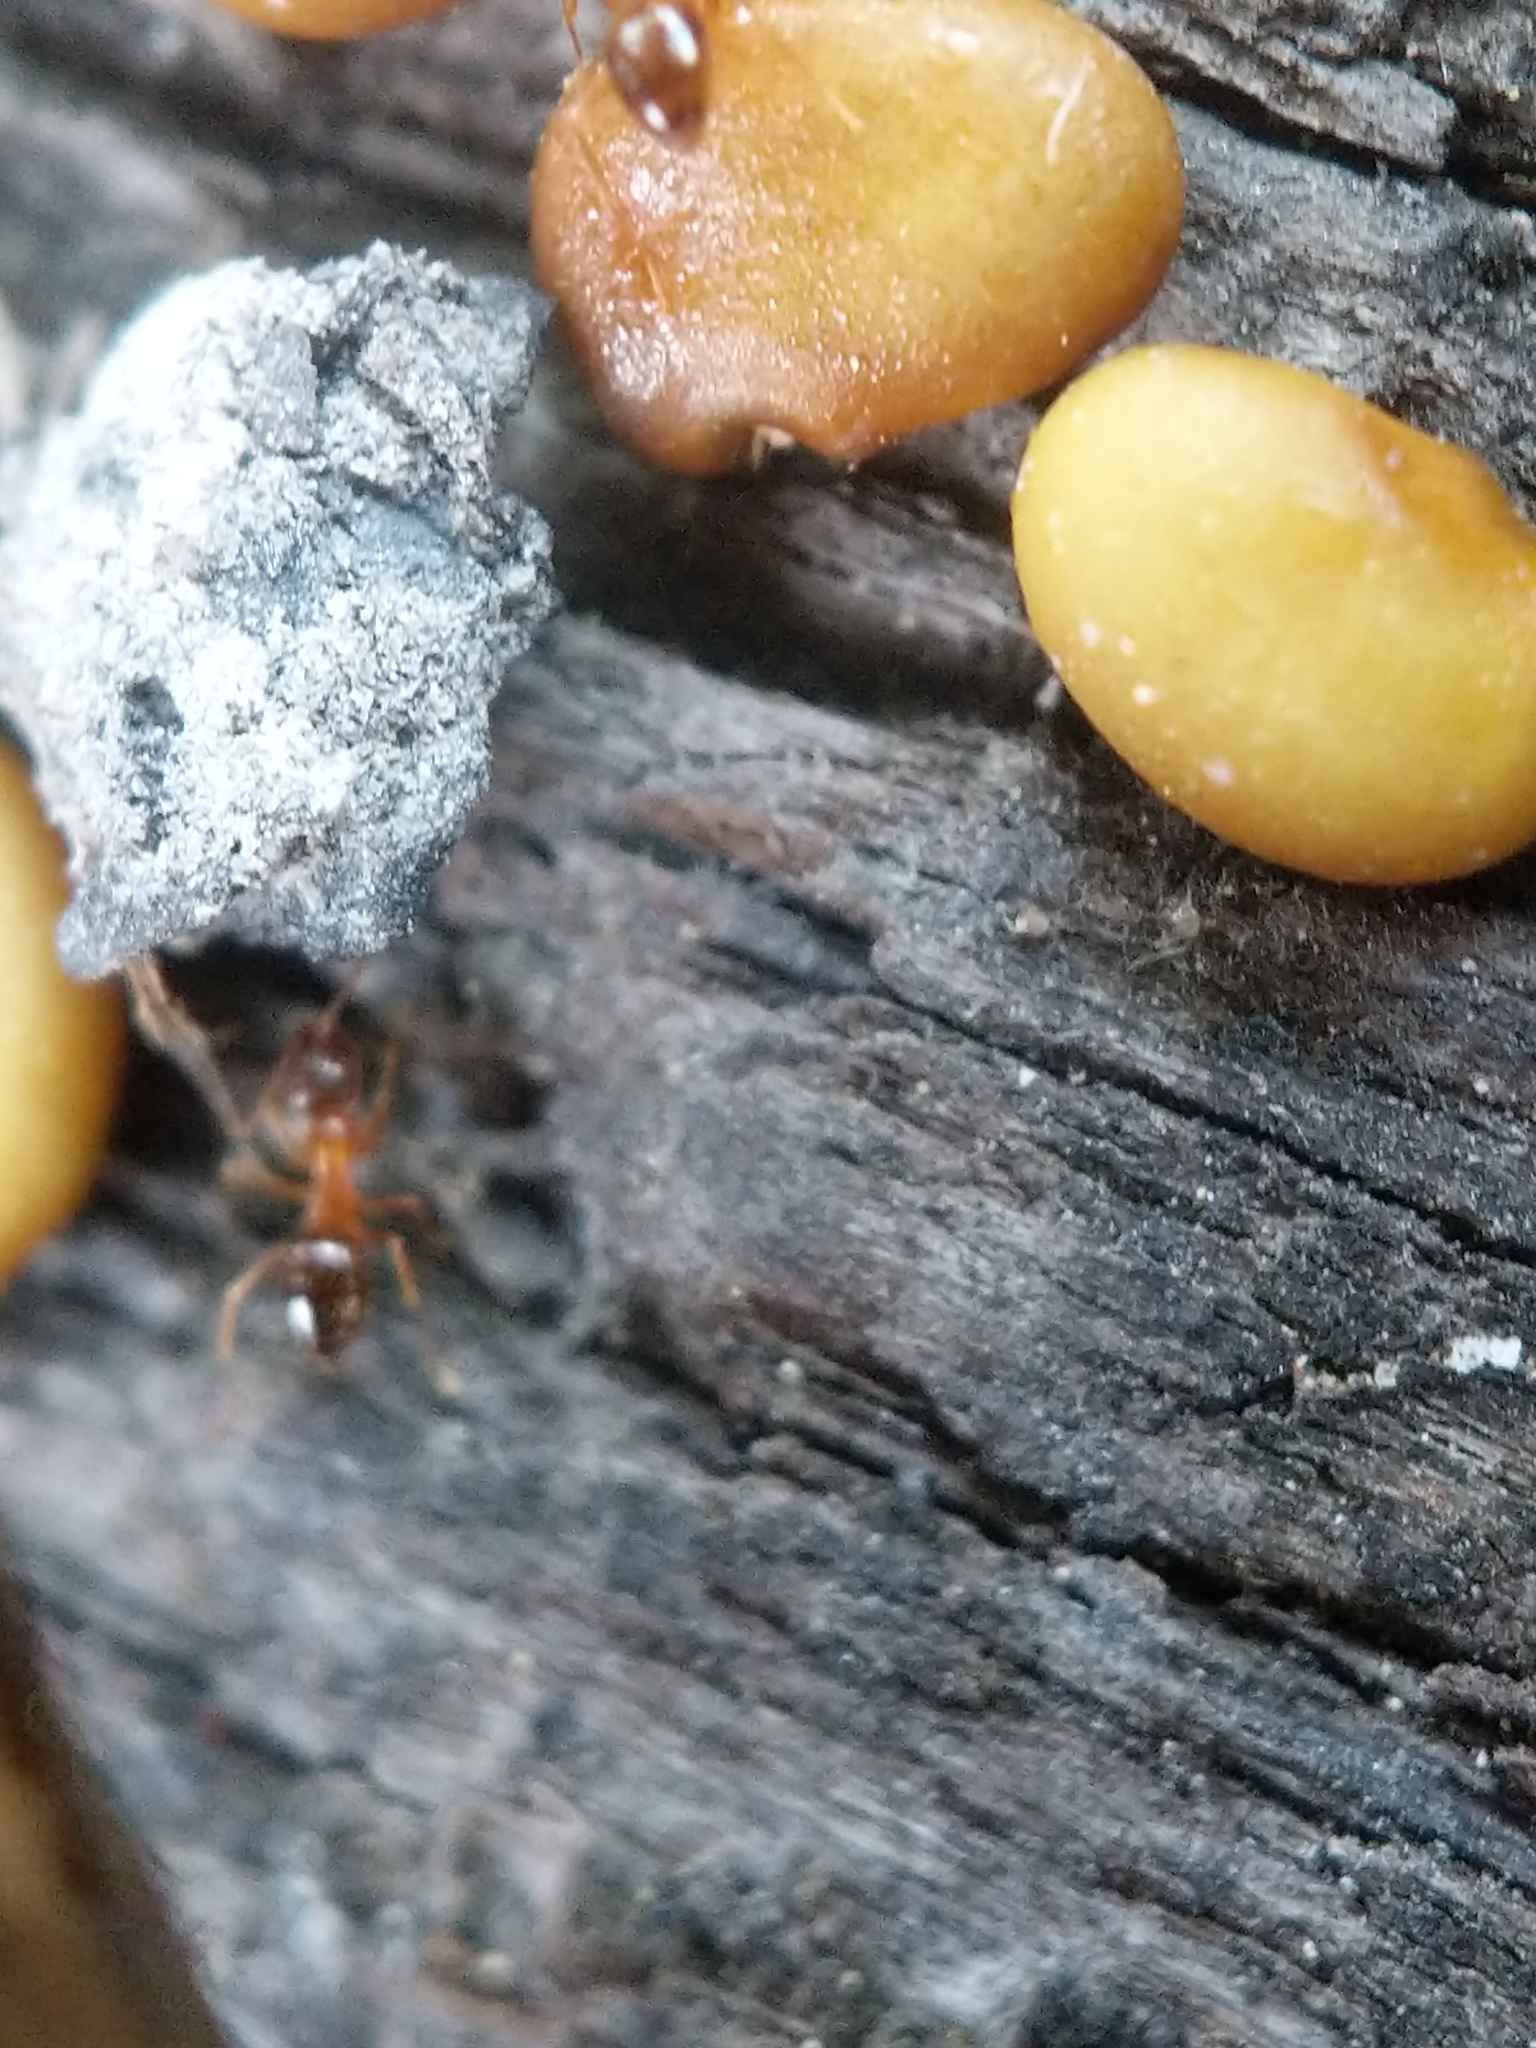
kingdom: Animalia
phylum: Arthropoda
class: Insecta
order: Hymenoptera
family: Formicidae
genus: Paratrechina
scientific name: Paratrechina flavipes
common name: Eastern asian formicine ant
